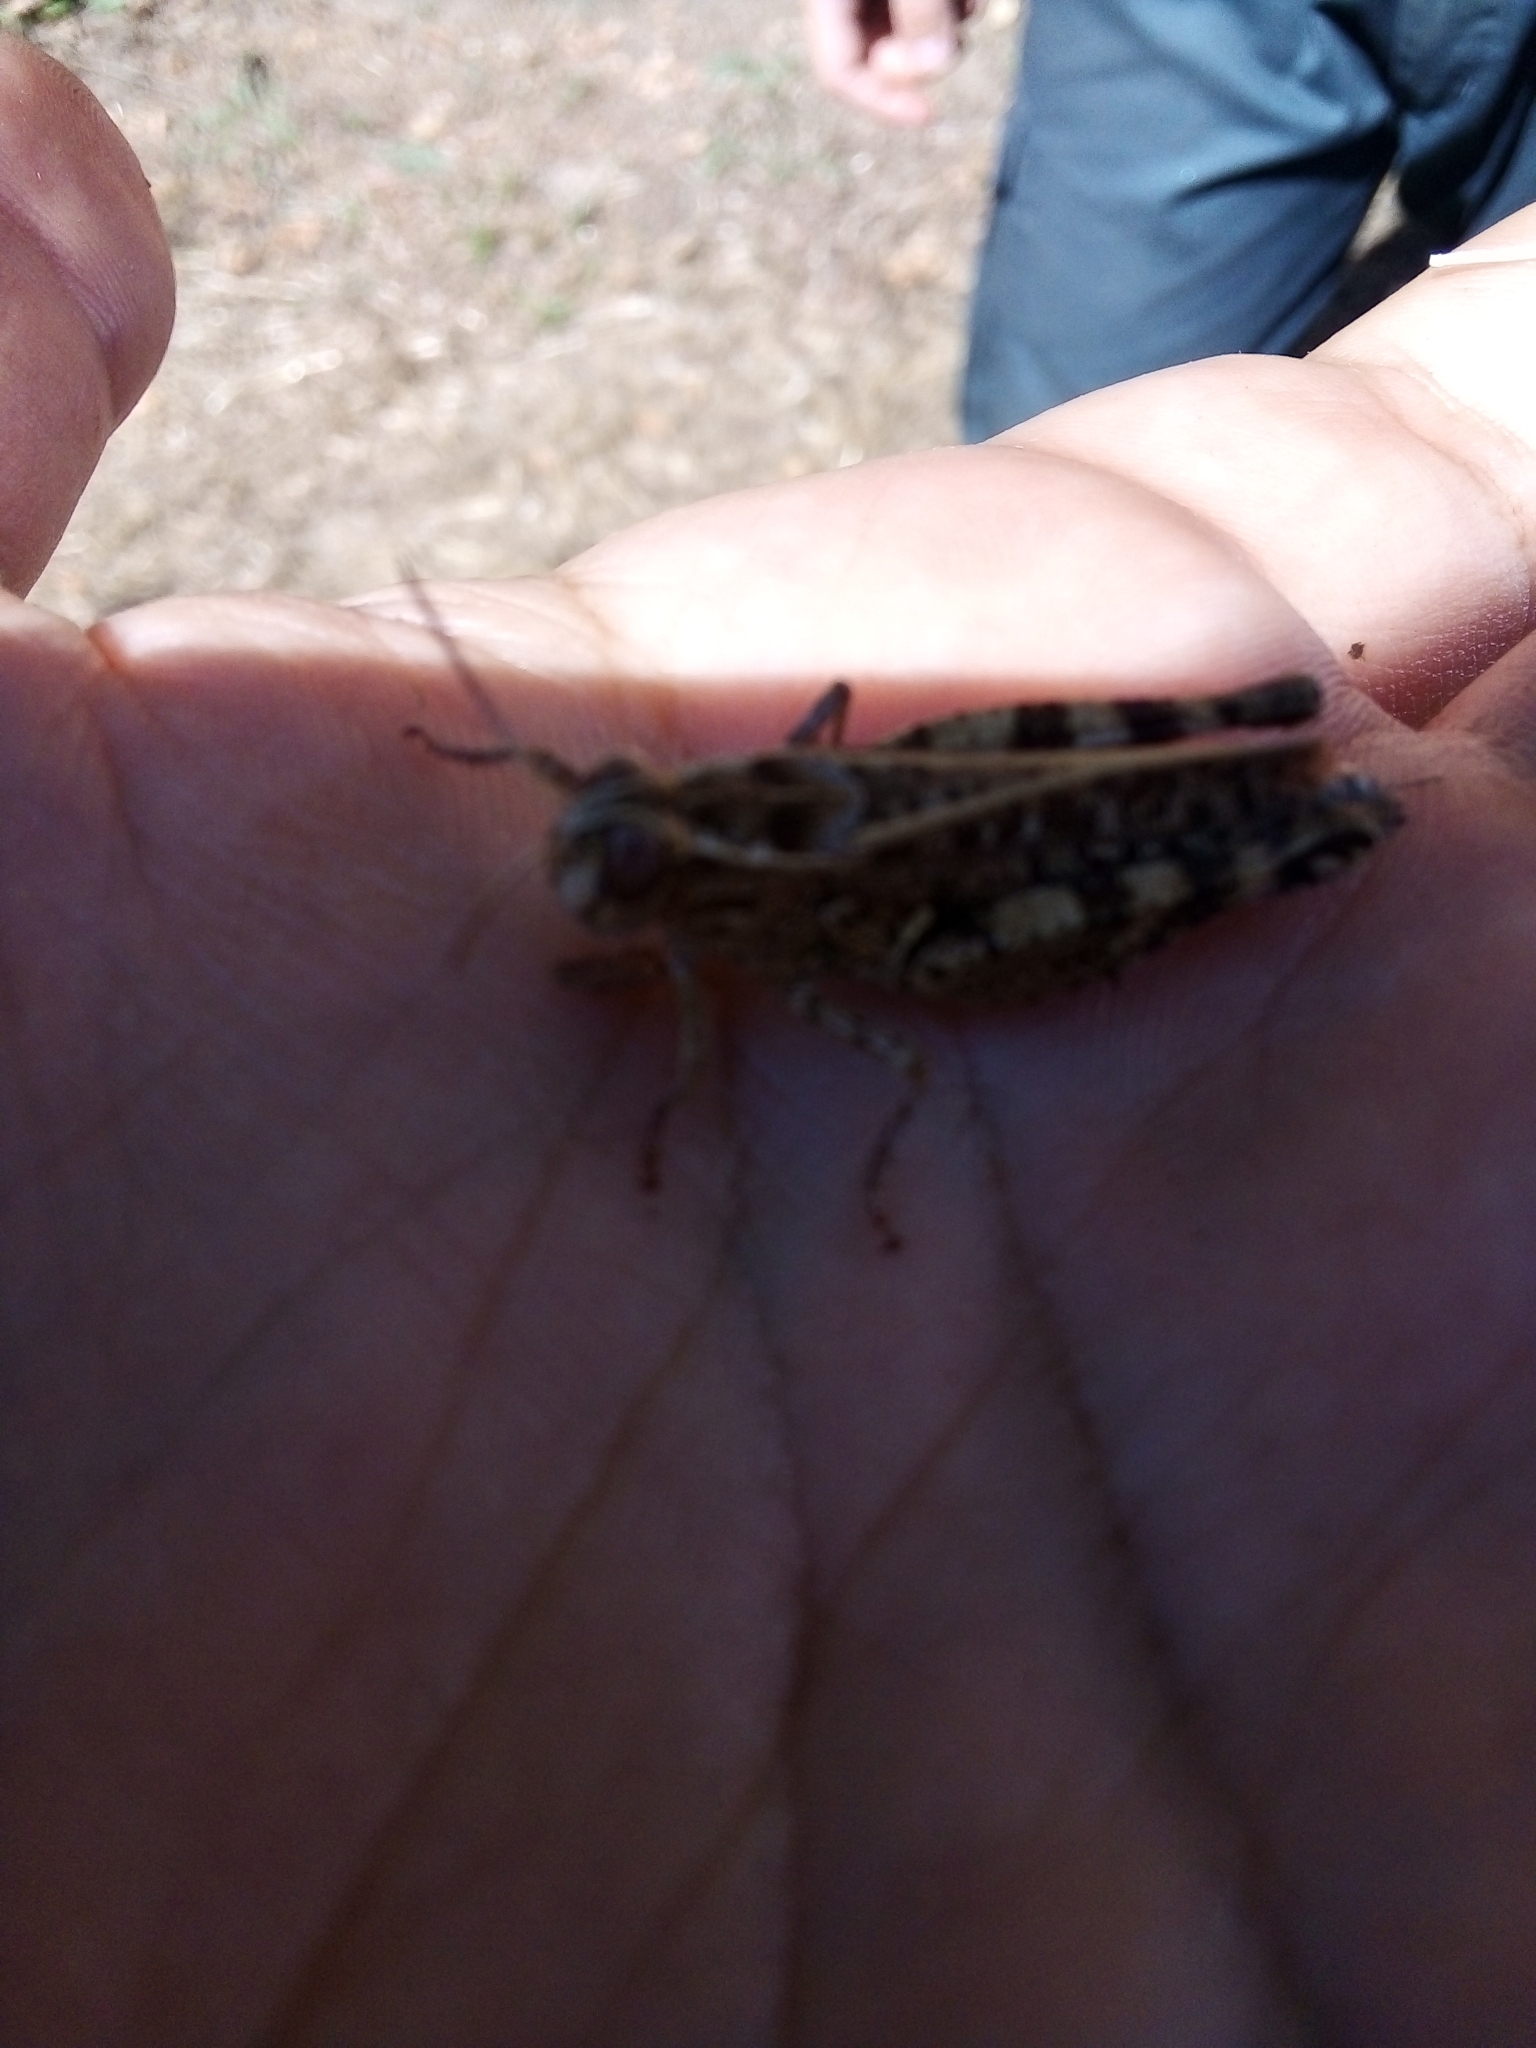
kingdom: Animalia
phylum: Arthropoda
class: Insecta
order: Orthoptera
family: Acrididae
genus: Calliptamus
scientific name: Calliptamus barbarus
